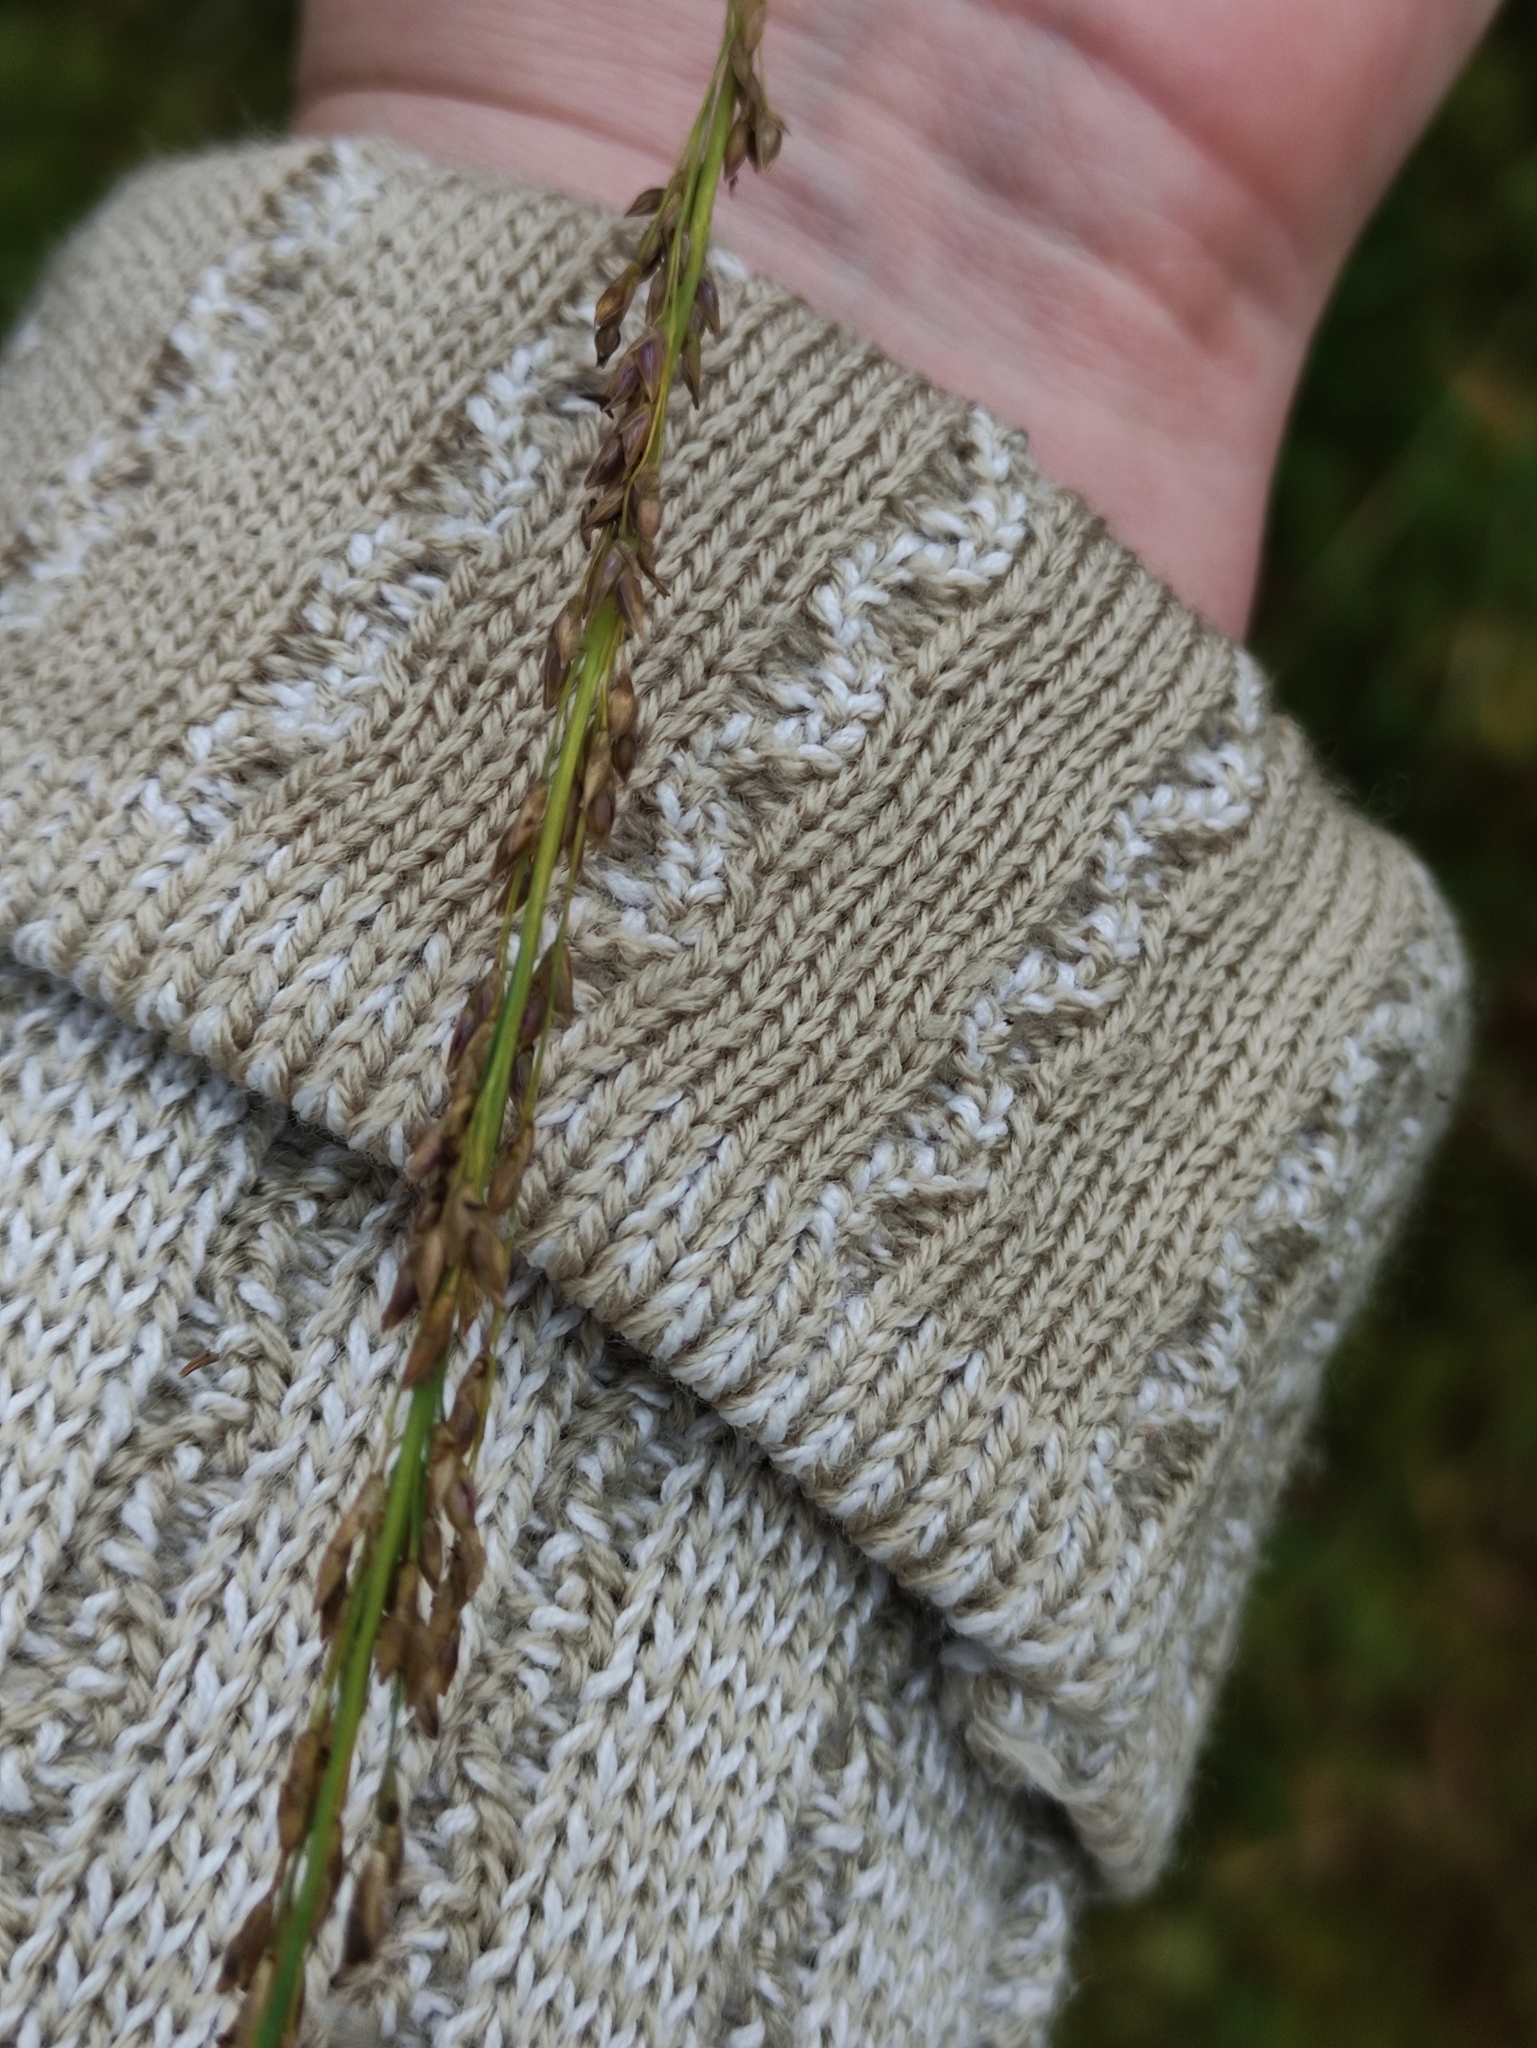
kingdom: Plantae
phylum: Tracheophyta
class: Liliopsida
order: Poales
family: Poaceae
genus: Molinia
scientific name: Molinia caerulea
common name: Purple moor-grass
